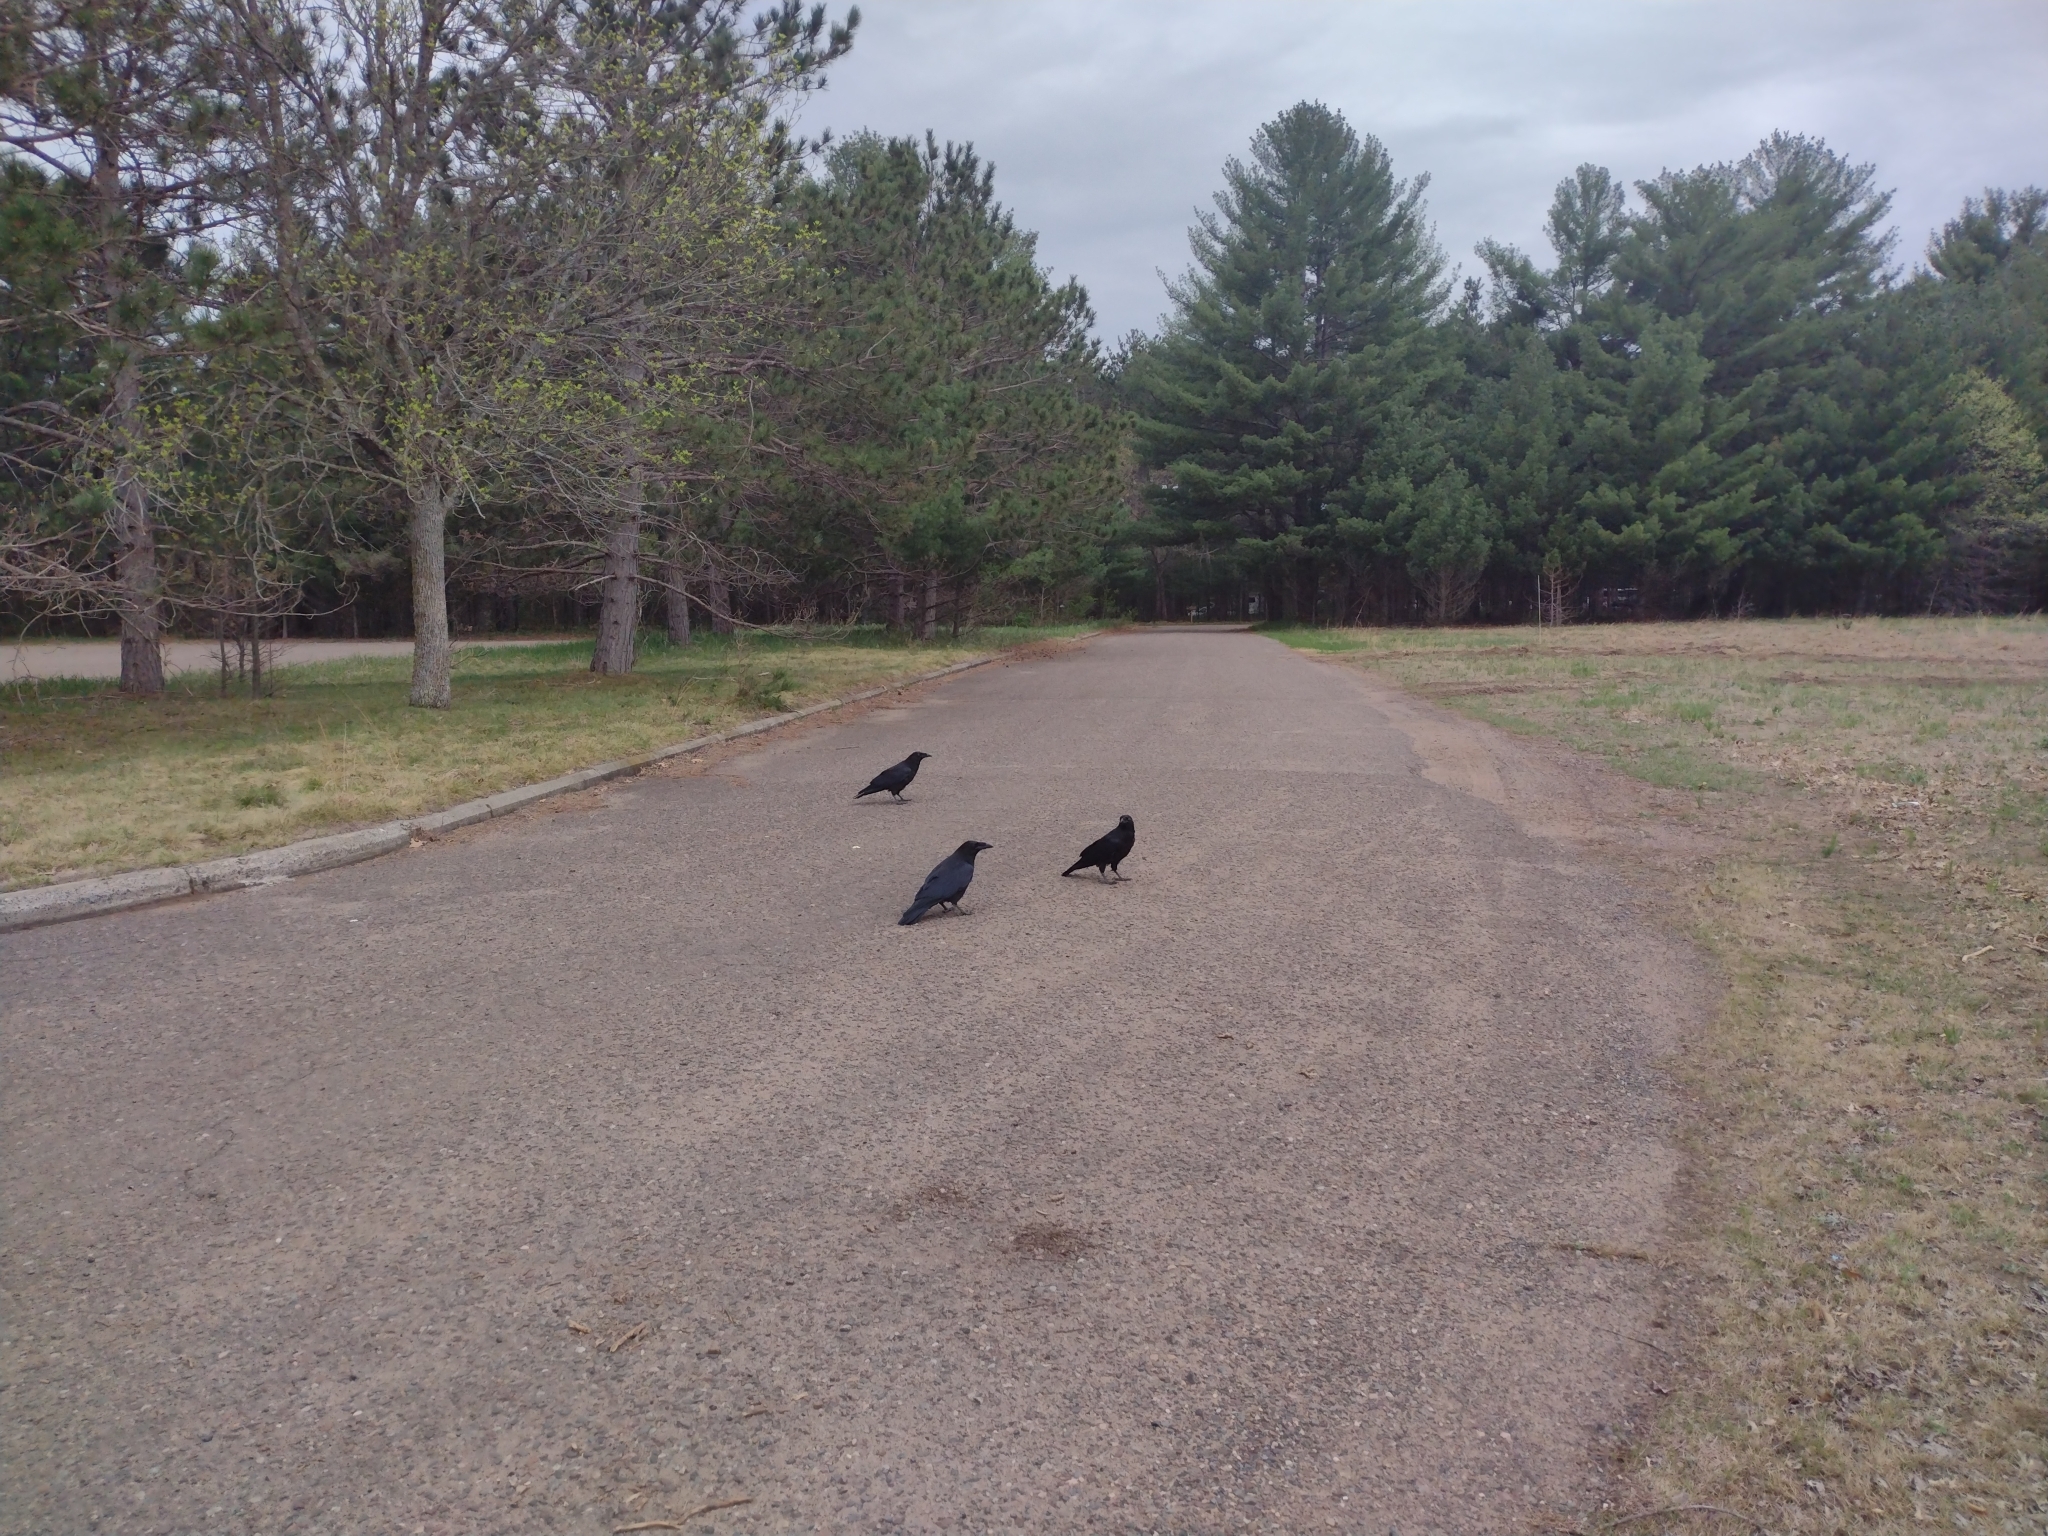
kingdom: Animalia
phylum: Chordata
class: Aves
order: Passeriformes
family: Corvidae
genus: Corvus
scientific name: Corvus brachyrhynchos
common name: American crow
